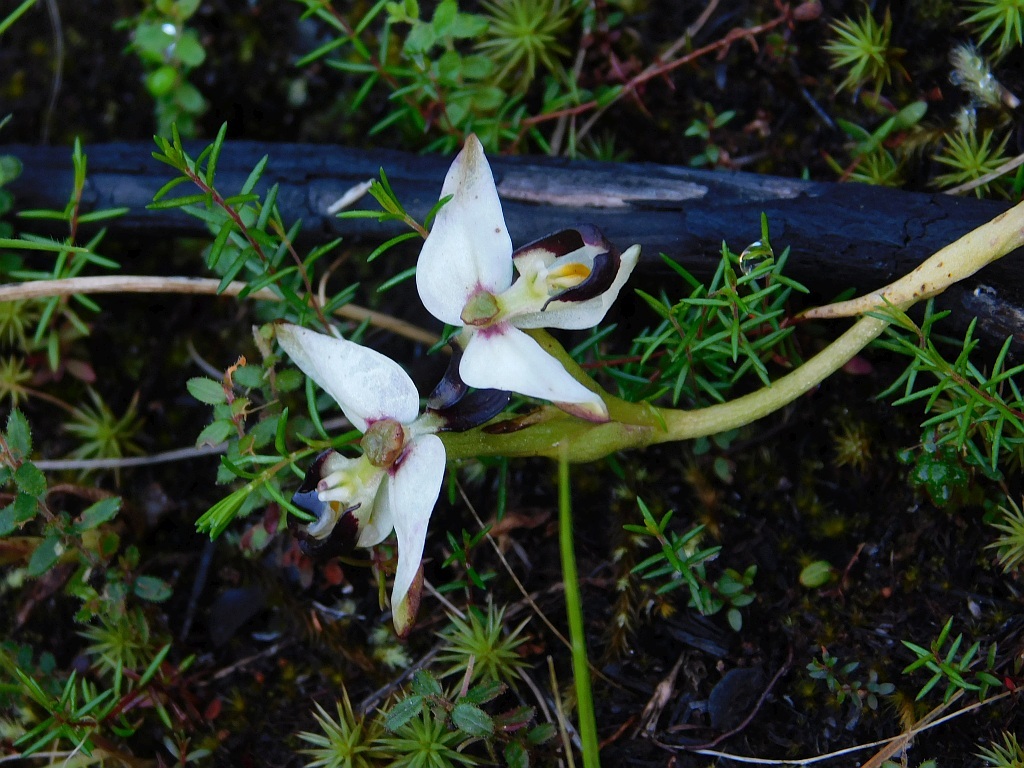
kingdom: Plantae
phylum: Tracheophyta
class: Liliopsida
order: Asparagales
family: Orchidaceae
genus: Disa
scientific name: Disa bivalvata
